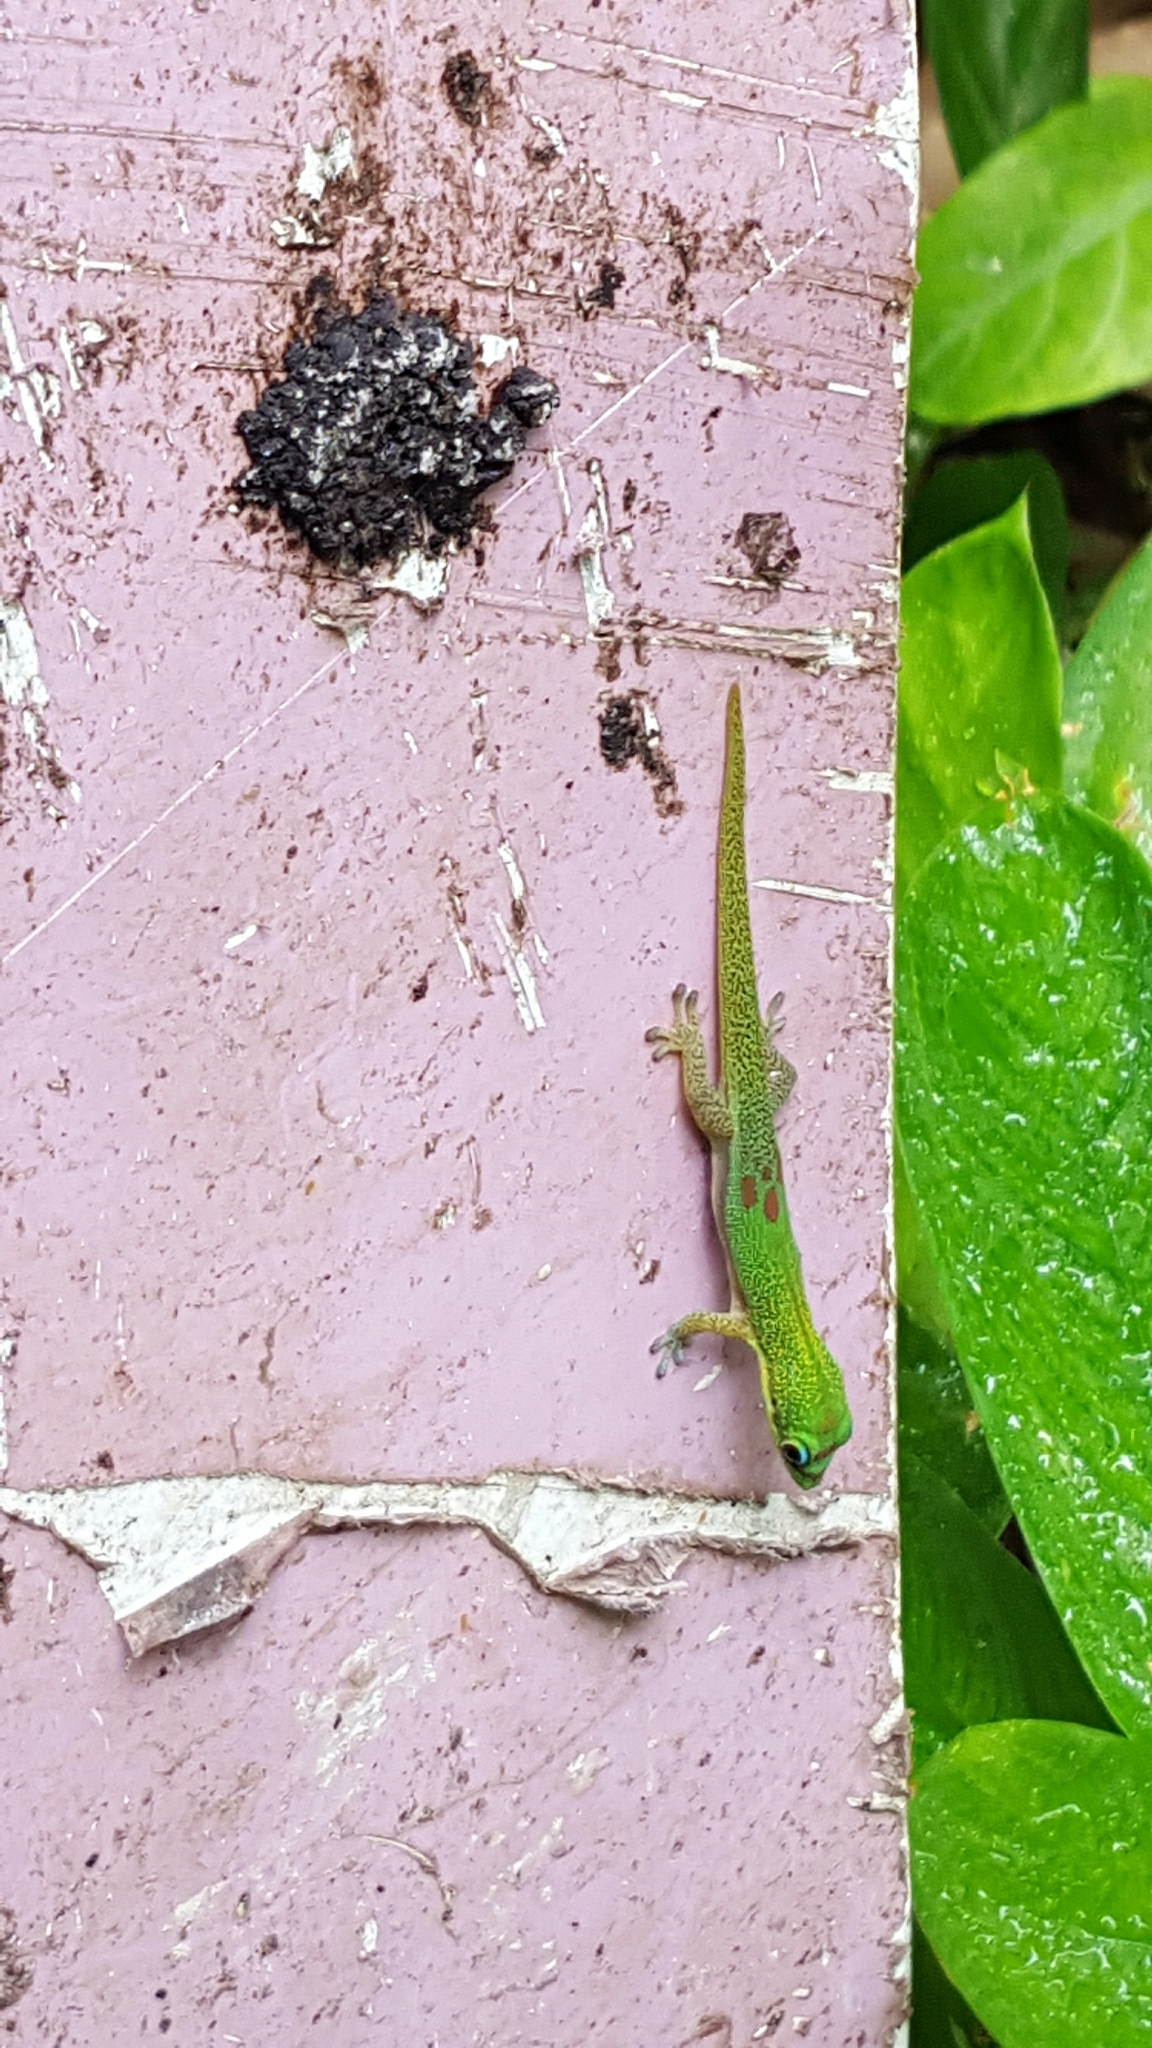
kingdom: Animalia
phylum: Chordata
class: Squamata
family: Gekkonidae
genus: Phelsuma
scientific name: Phelsuma laticauda
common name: Gold dust day gecko
